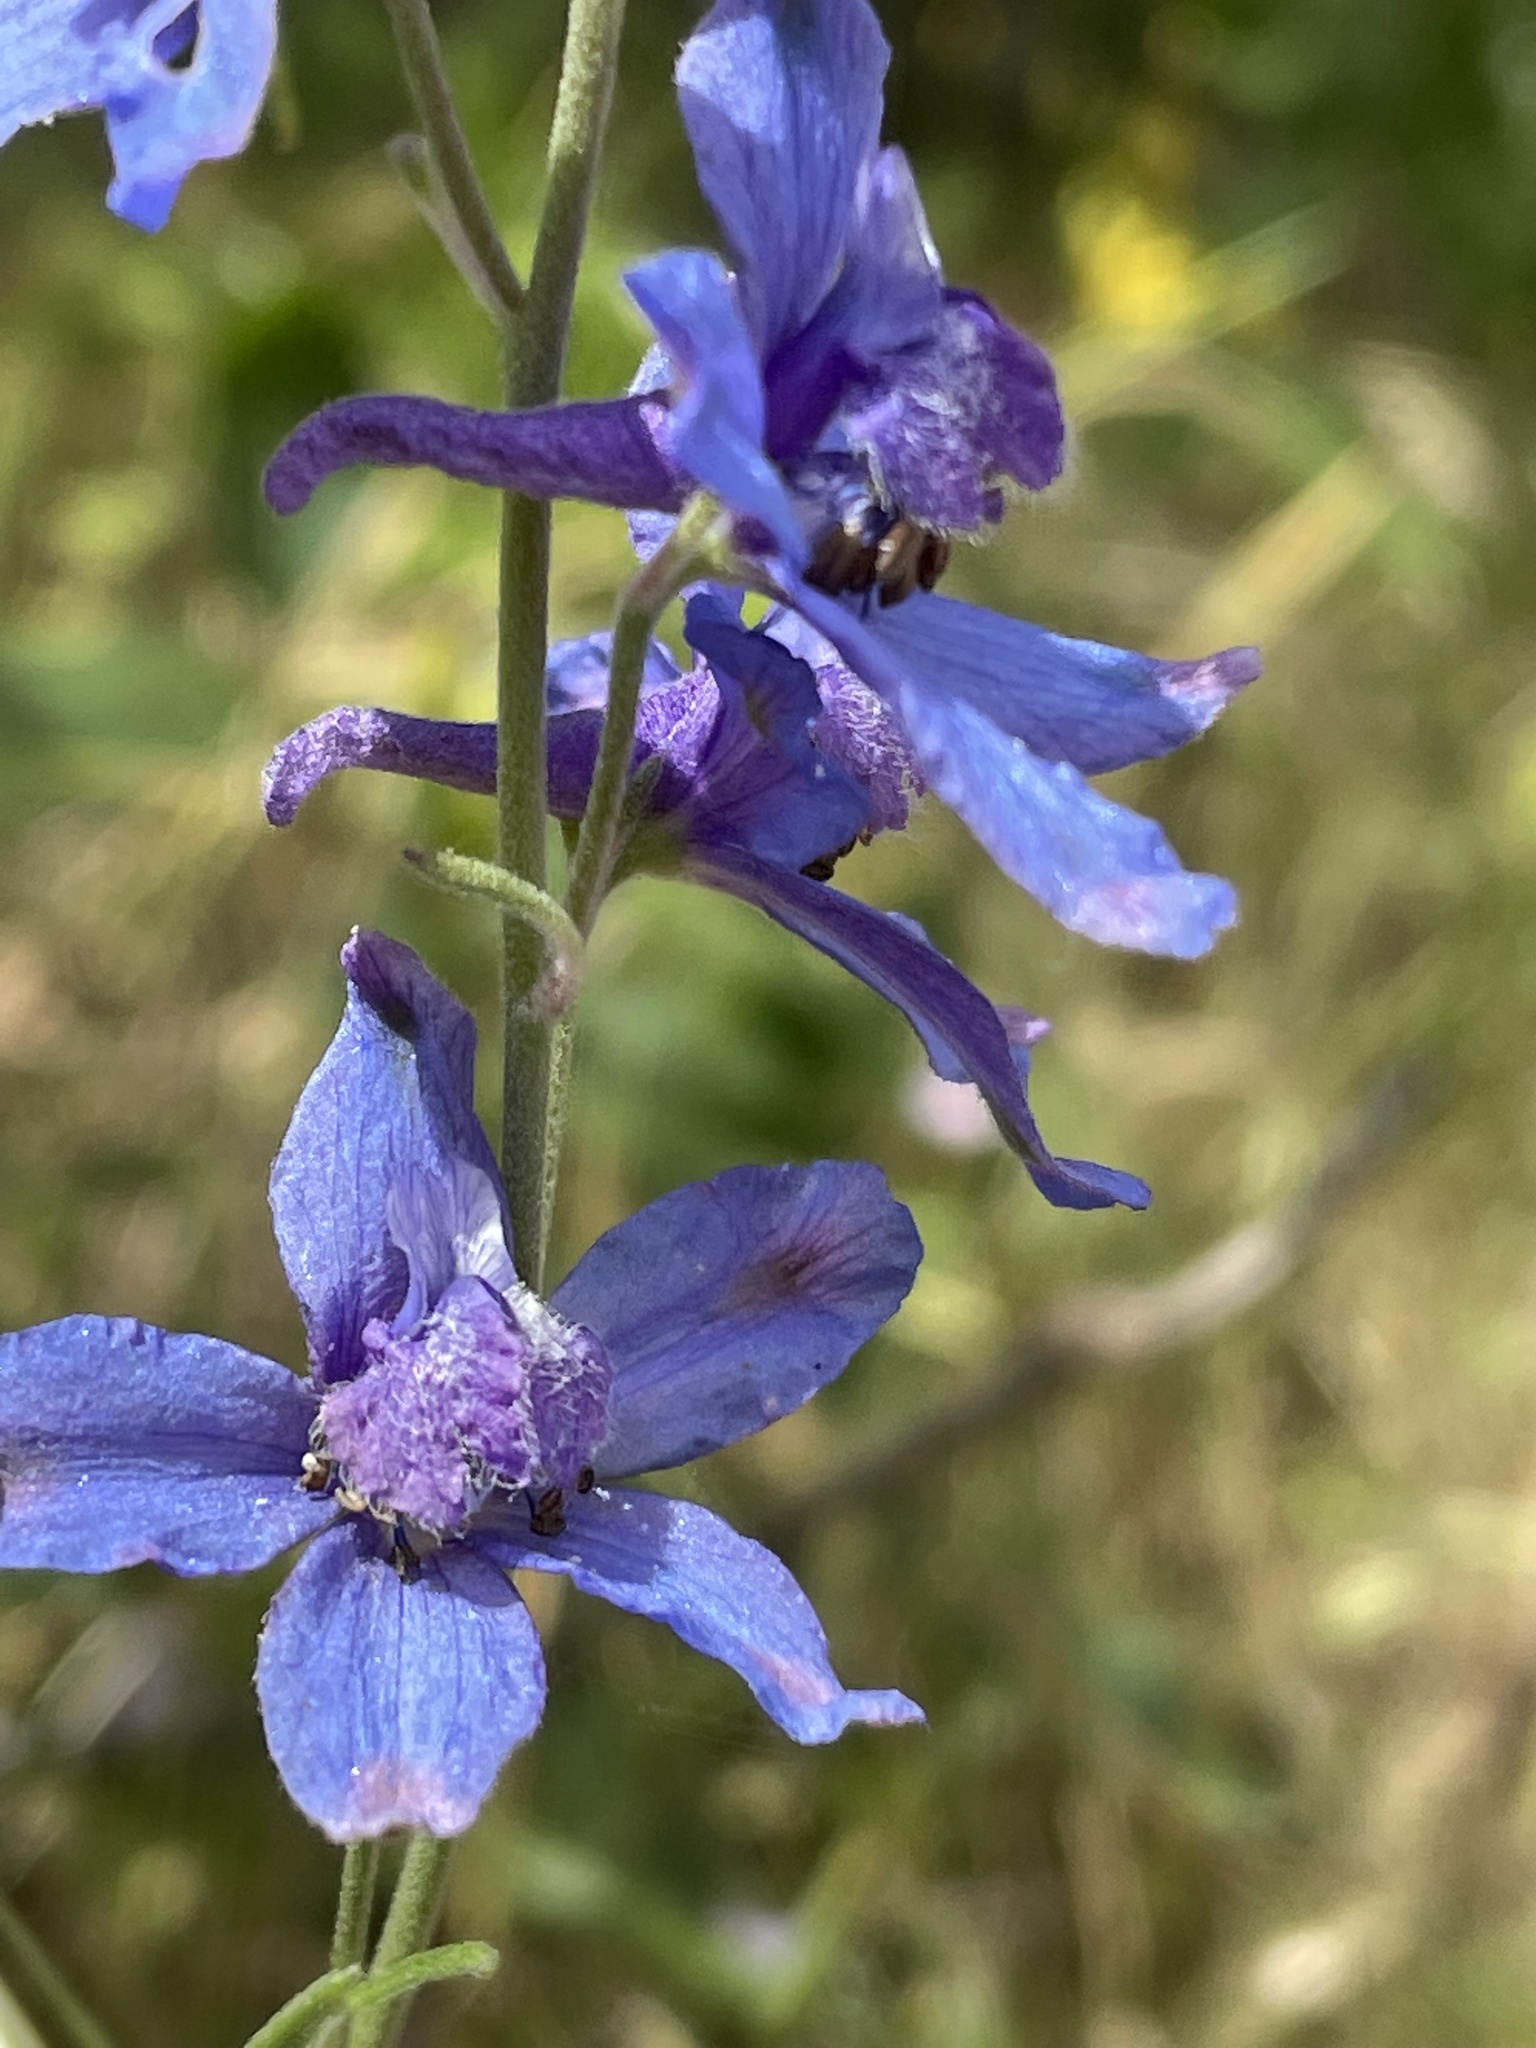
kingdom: Plantae
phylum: Tracheophyta
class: Magnoliopsida
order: Ranunculales
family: Ranunculaceae
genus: Delphinium
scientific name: Delphinium parryi
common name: Parry's larkspur
